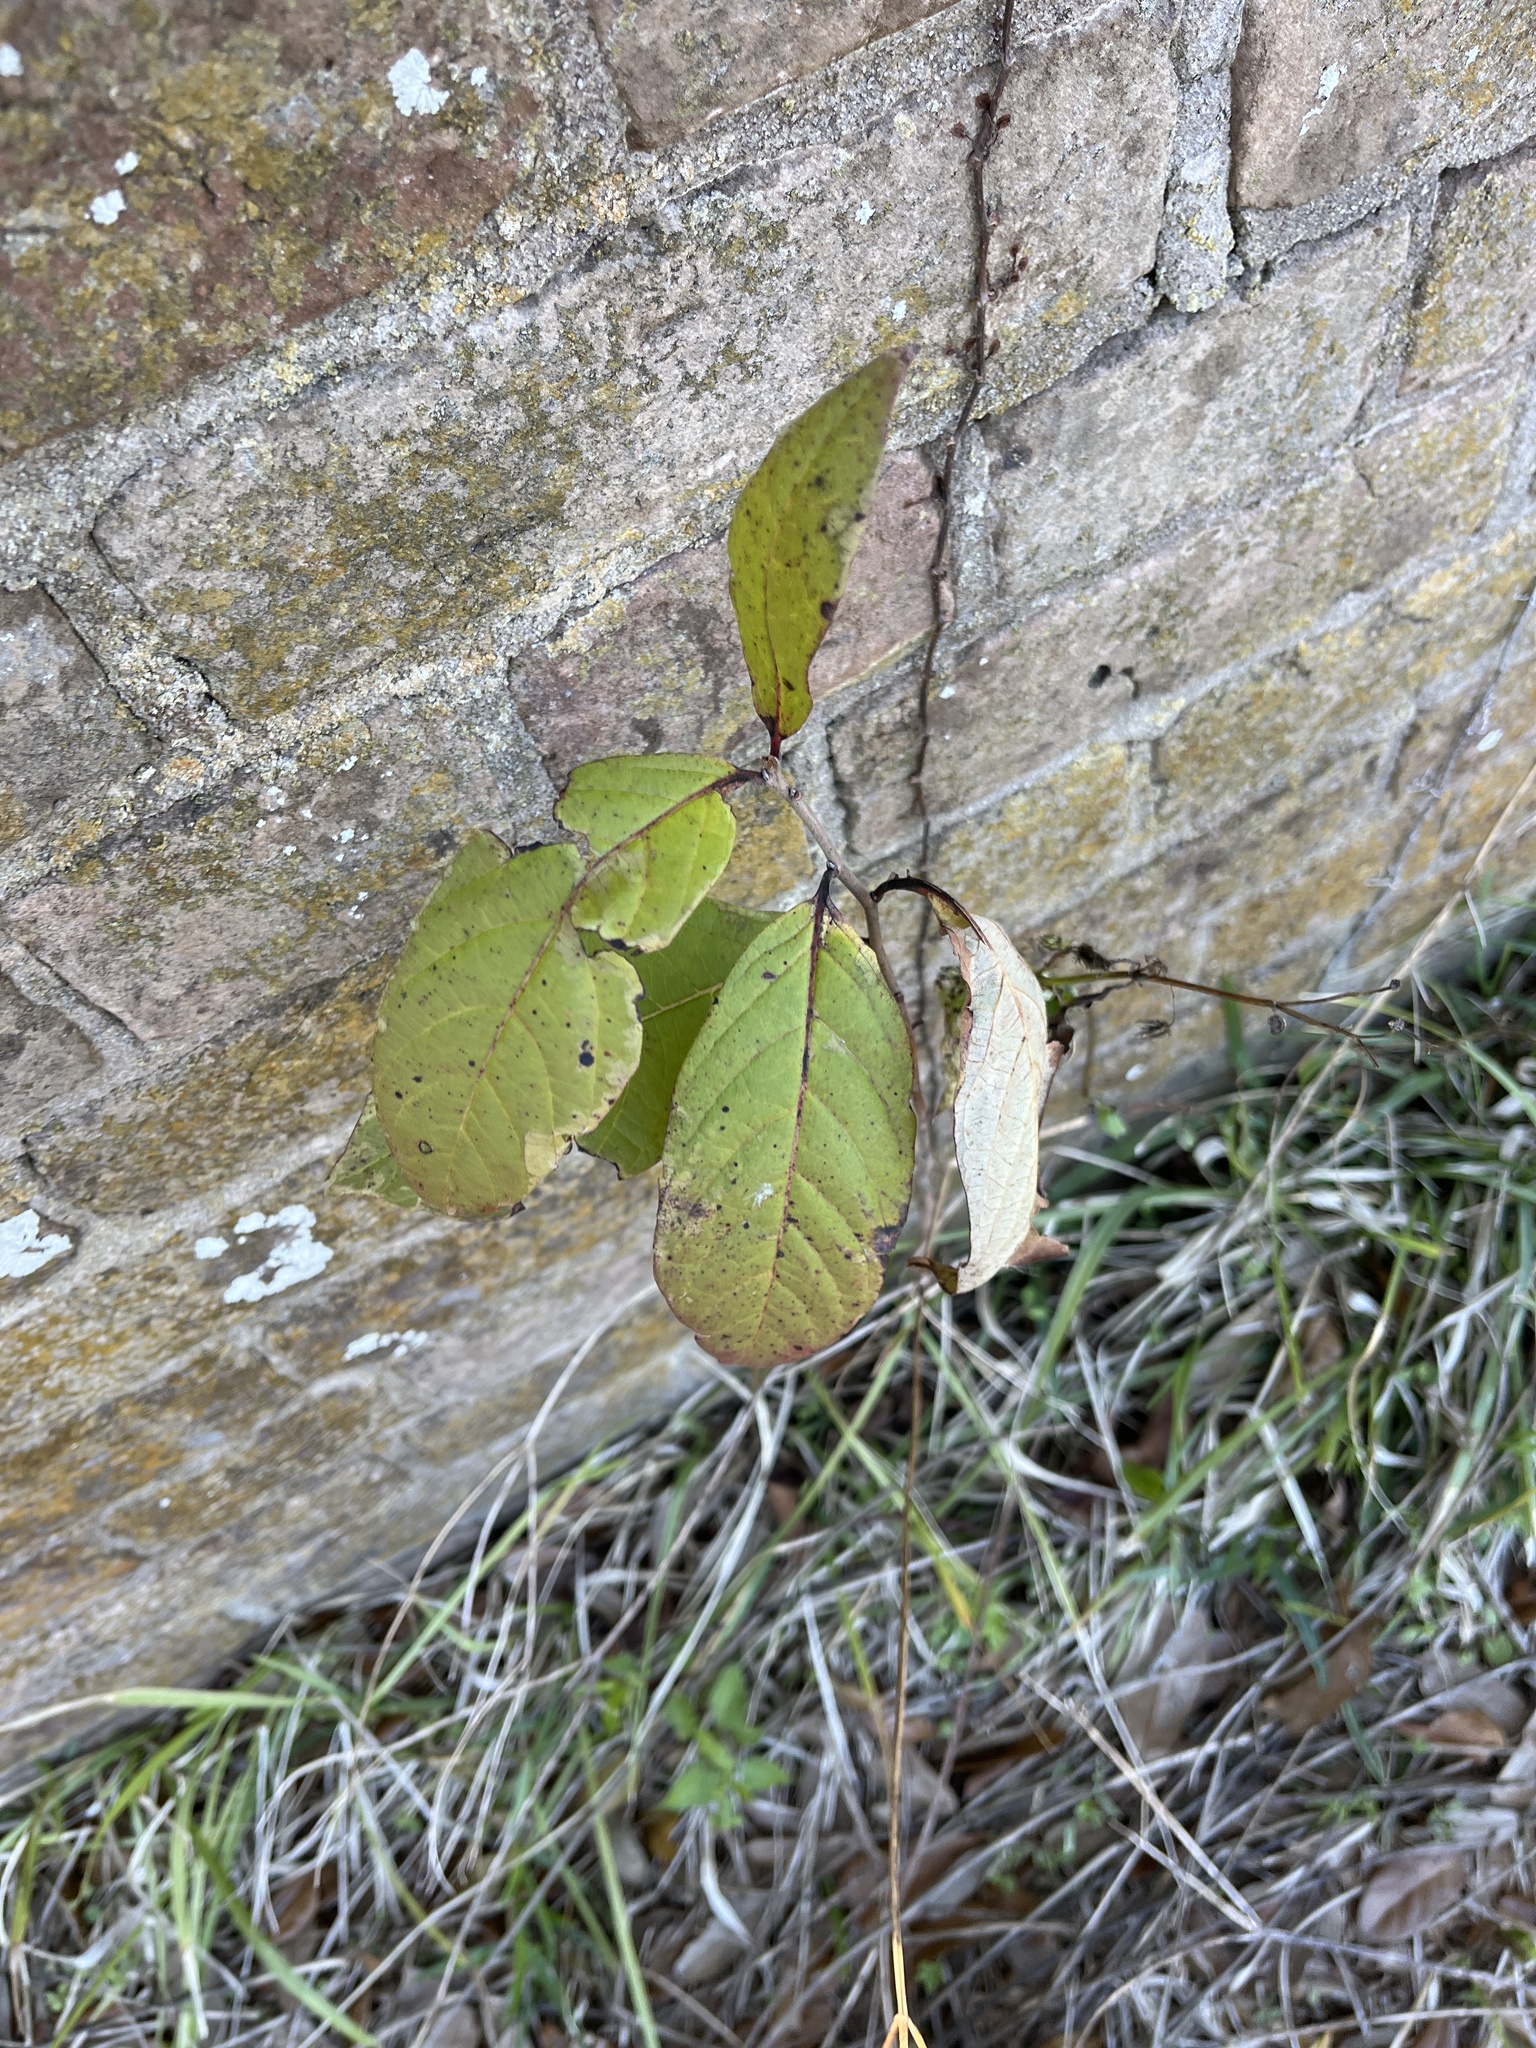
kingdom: Plantae
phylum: Tracheophyta
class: Magnoliopsida
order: Ericales
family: Ebenaceae
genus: Diospyros
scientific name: Diospyros virginiana
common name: Persimmon
